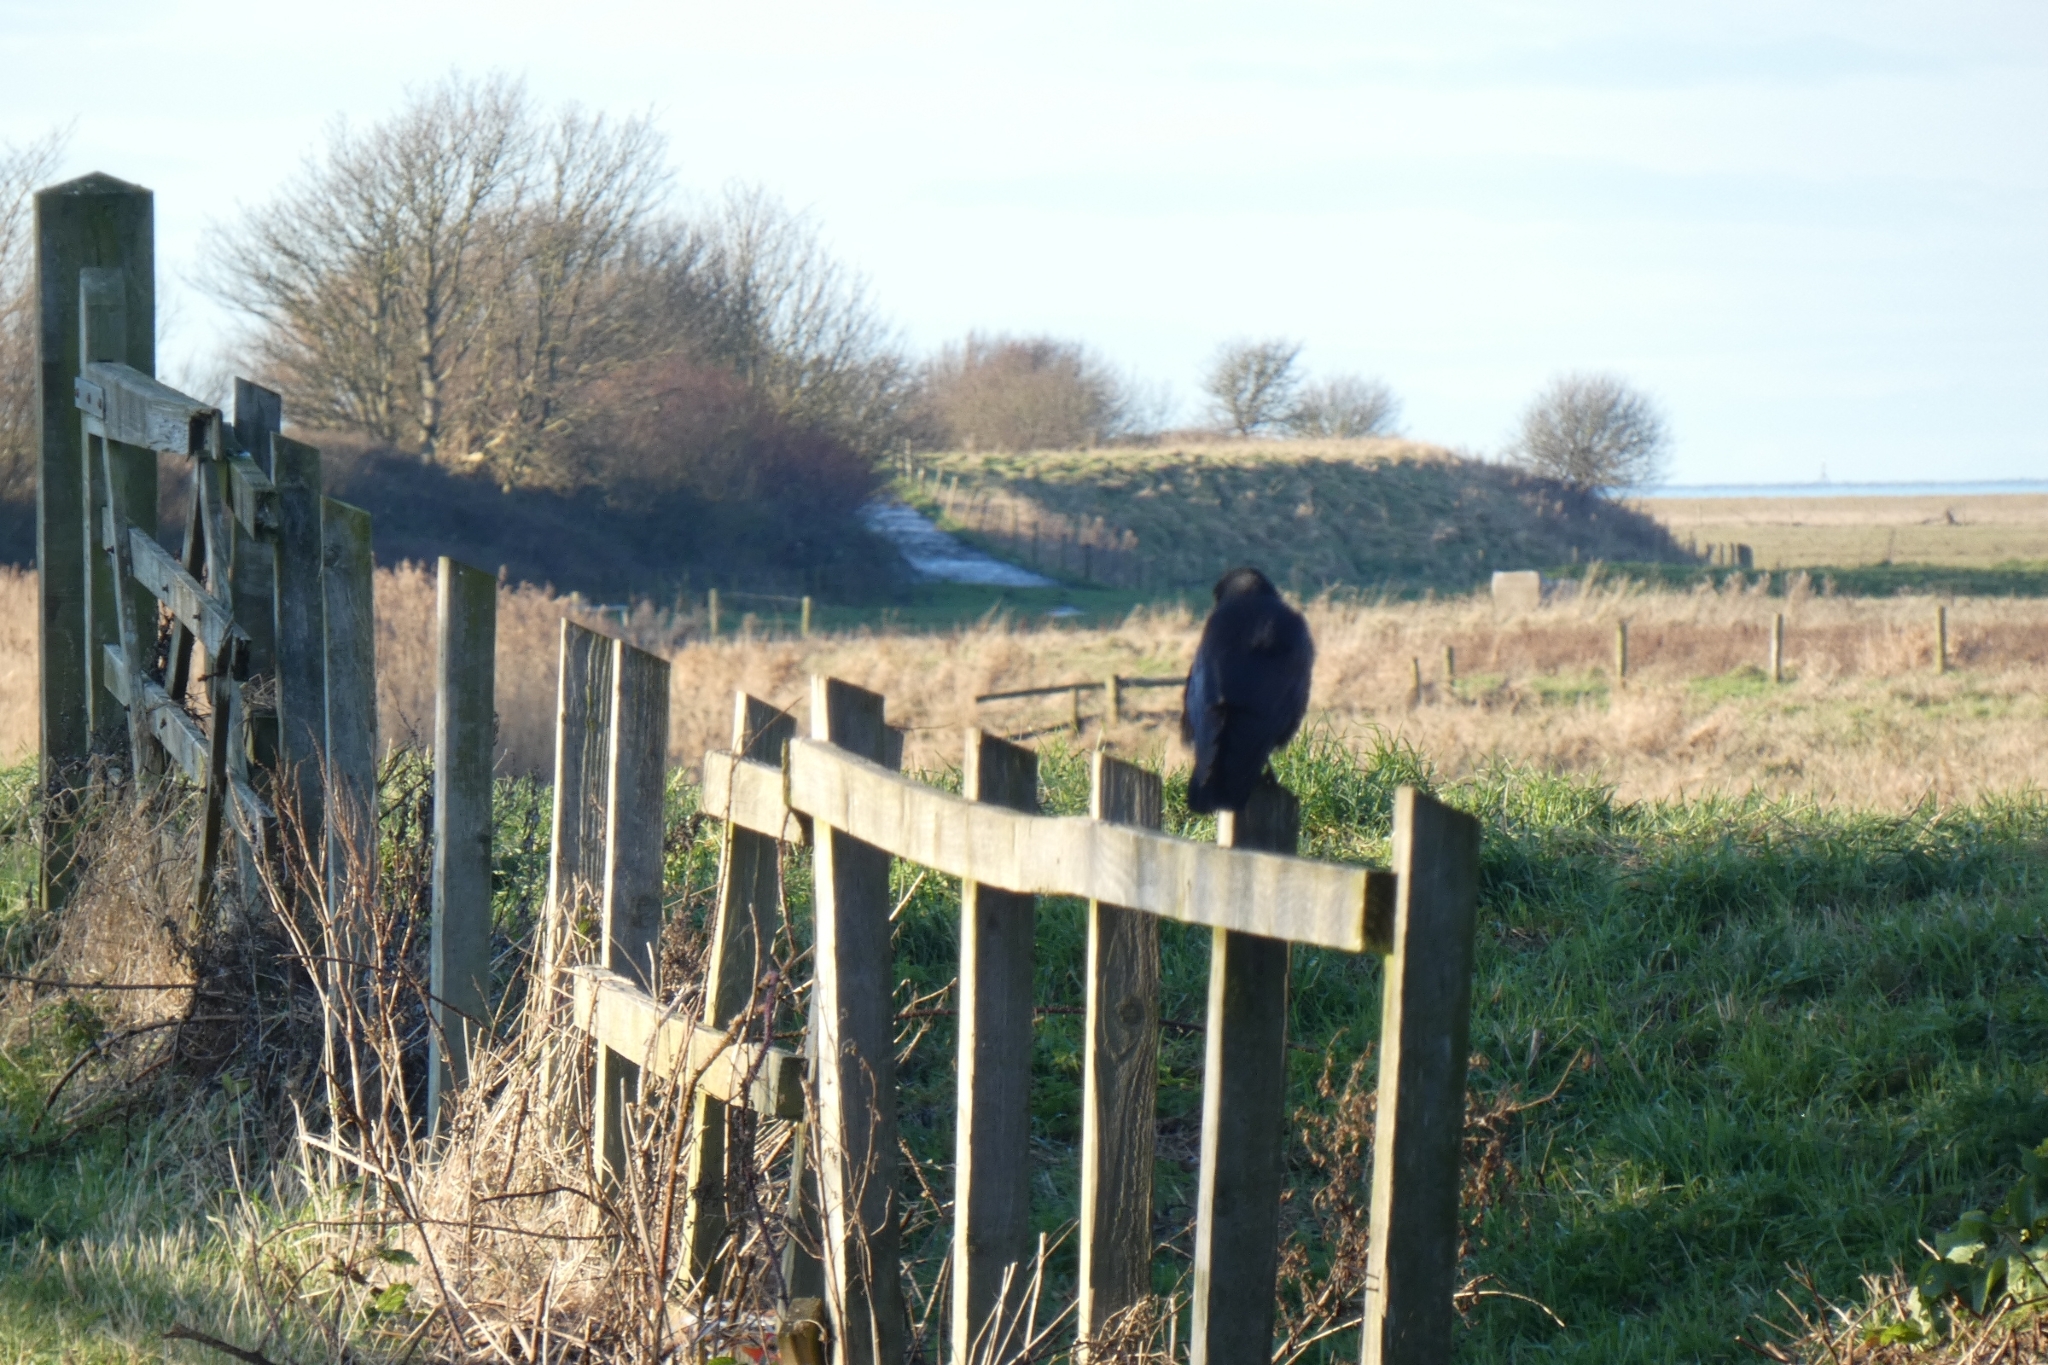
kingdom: Animalia
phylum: Chordata
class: Aves
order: Passeriformes
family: Corvidae
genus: Corvus
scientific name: Corvus corone
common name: Carrion crow
